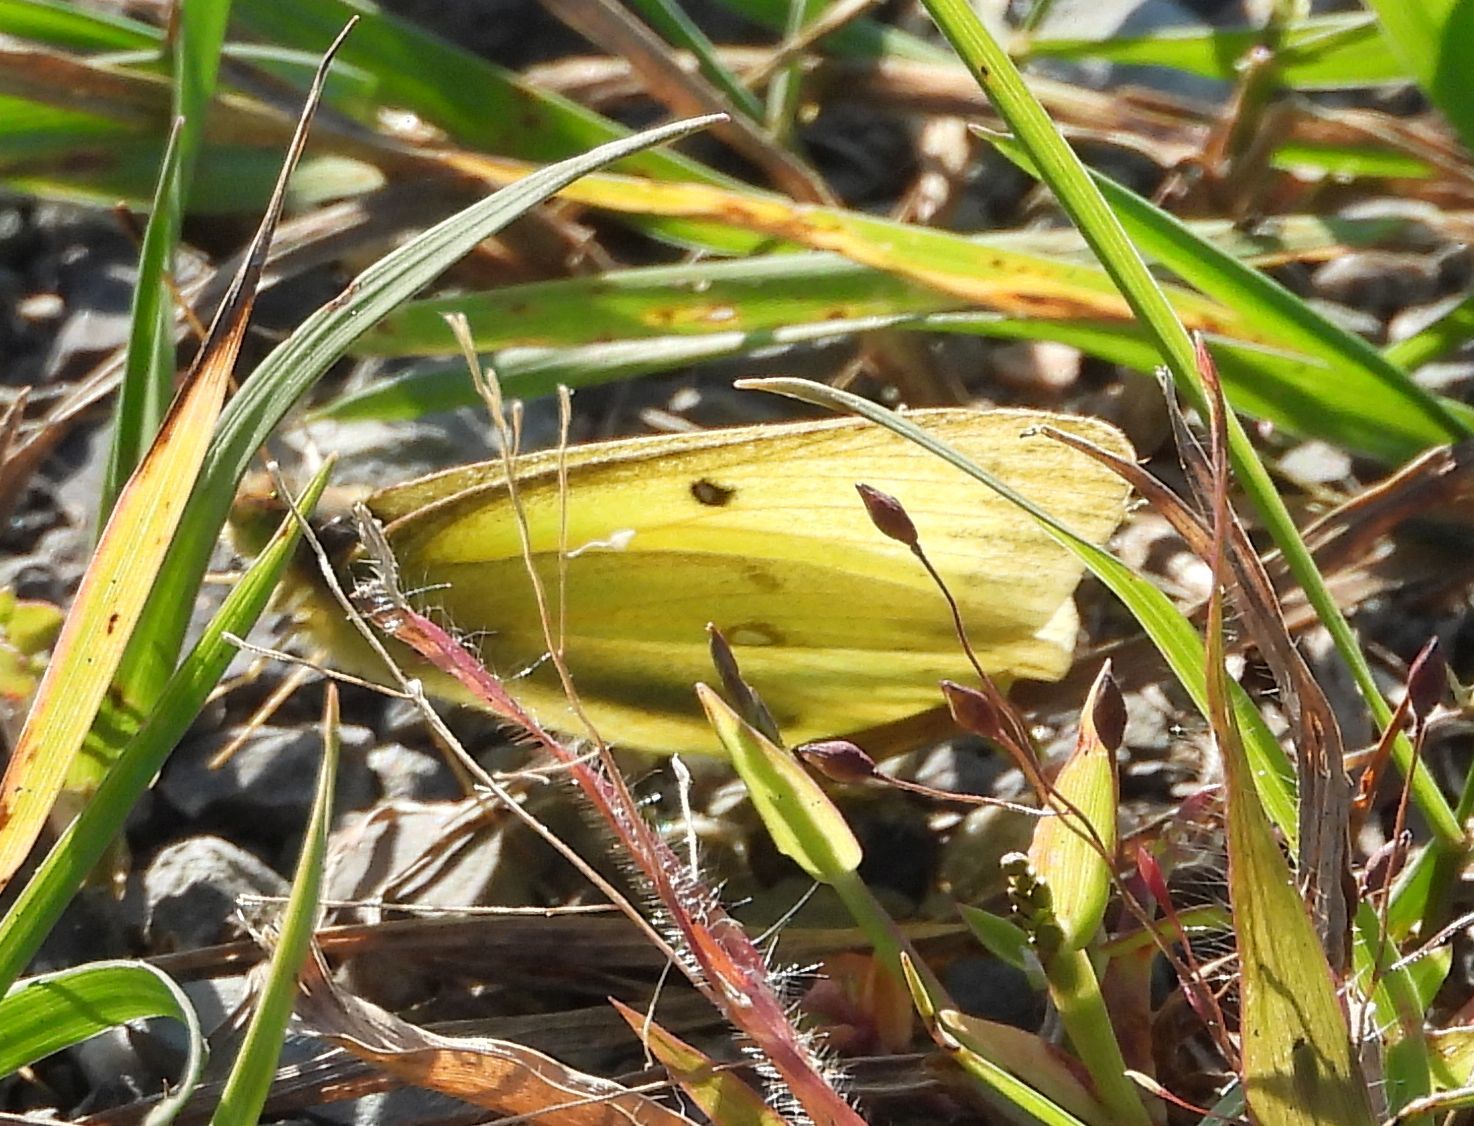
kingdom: Animalia
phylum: Arthropoda
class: Insecta
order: Lepidoptera
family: Pieridae
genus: Colias
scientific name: Colias philodice
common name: Clouded sulphur
